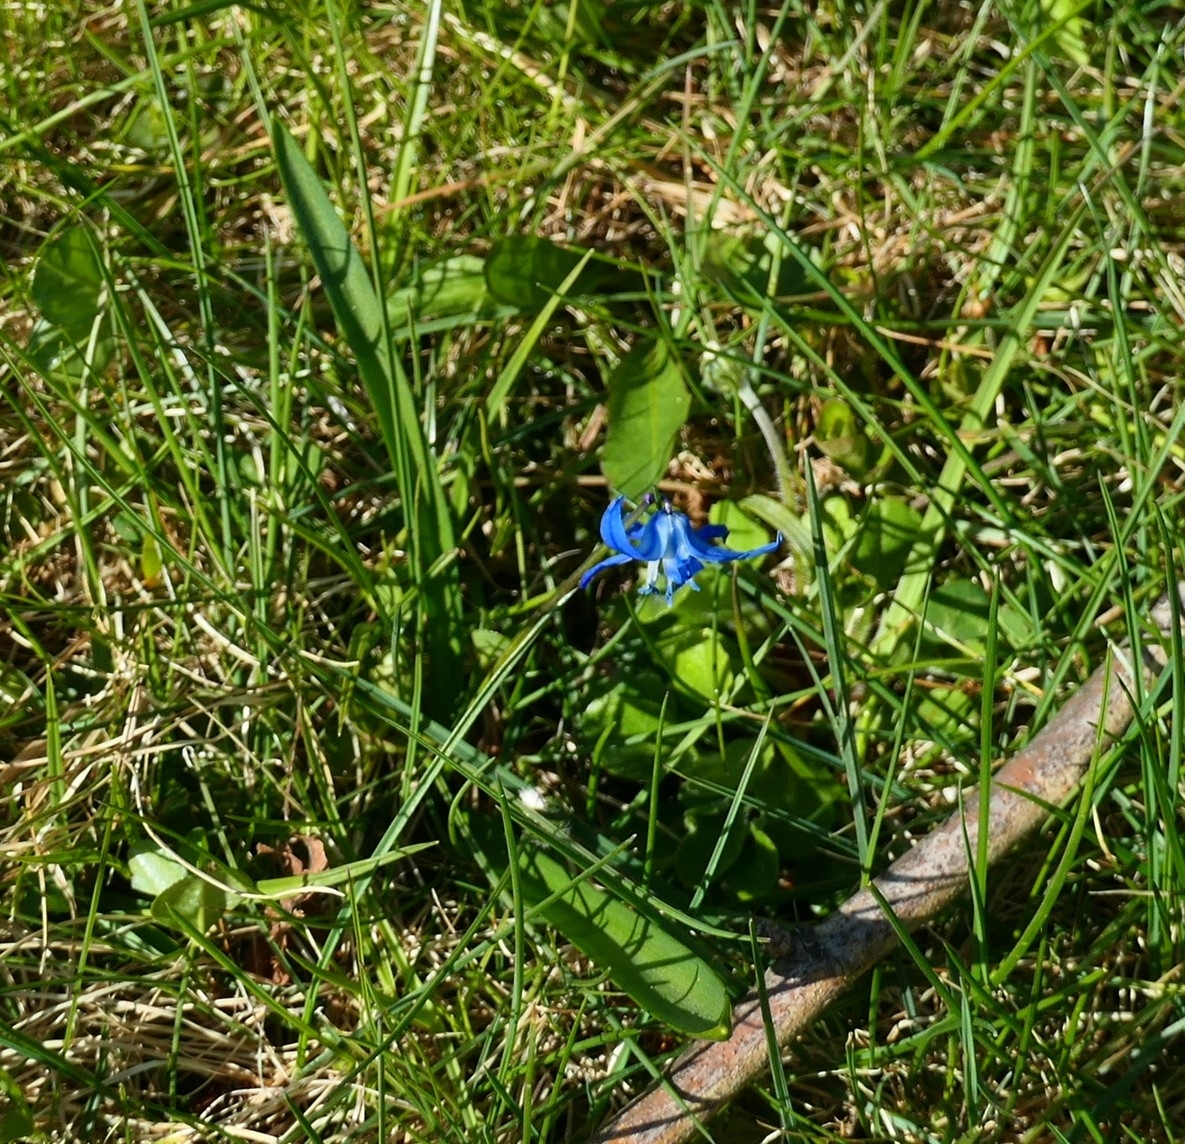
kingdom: Plantae
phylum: Tracheophyta
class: Liliopsida
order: Asparagales
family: Asparagaceae
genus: Scilla
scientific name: Scilla siberica
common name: Siberian squill
